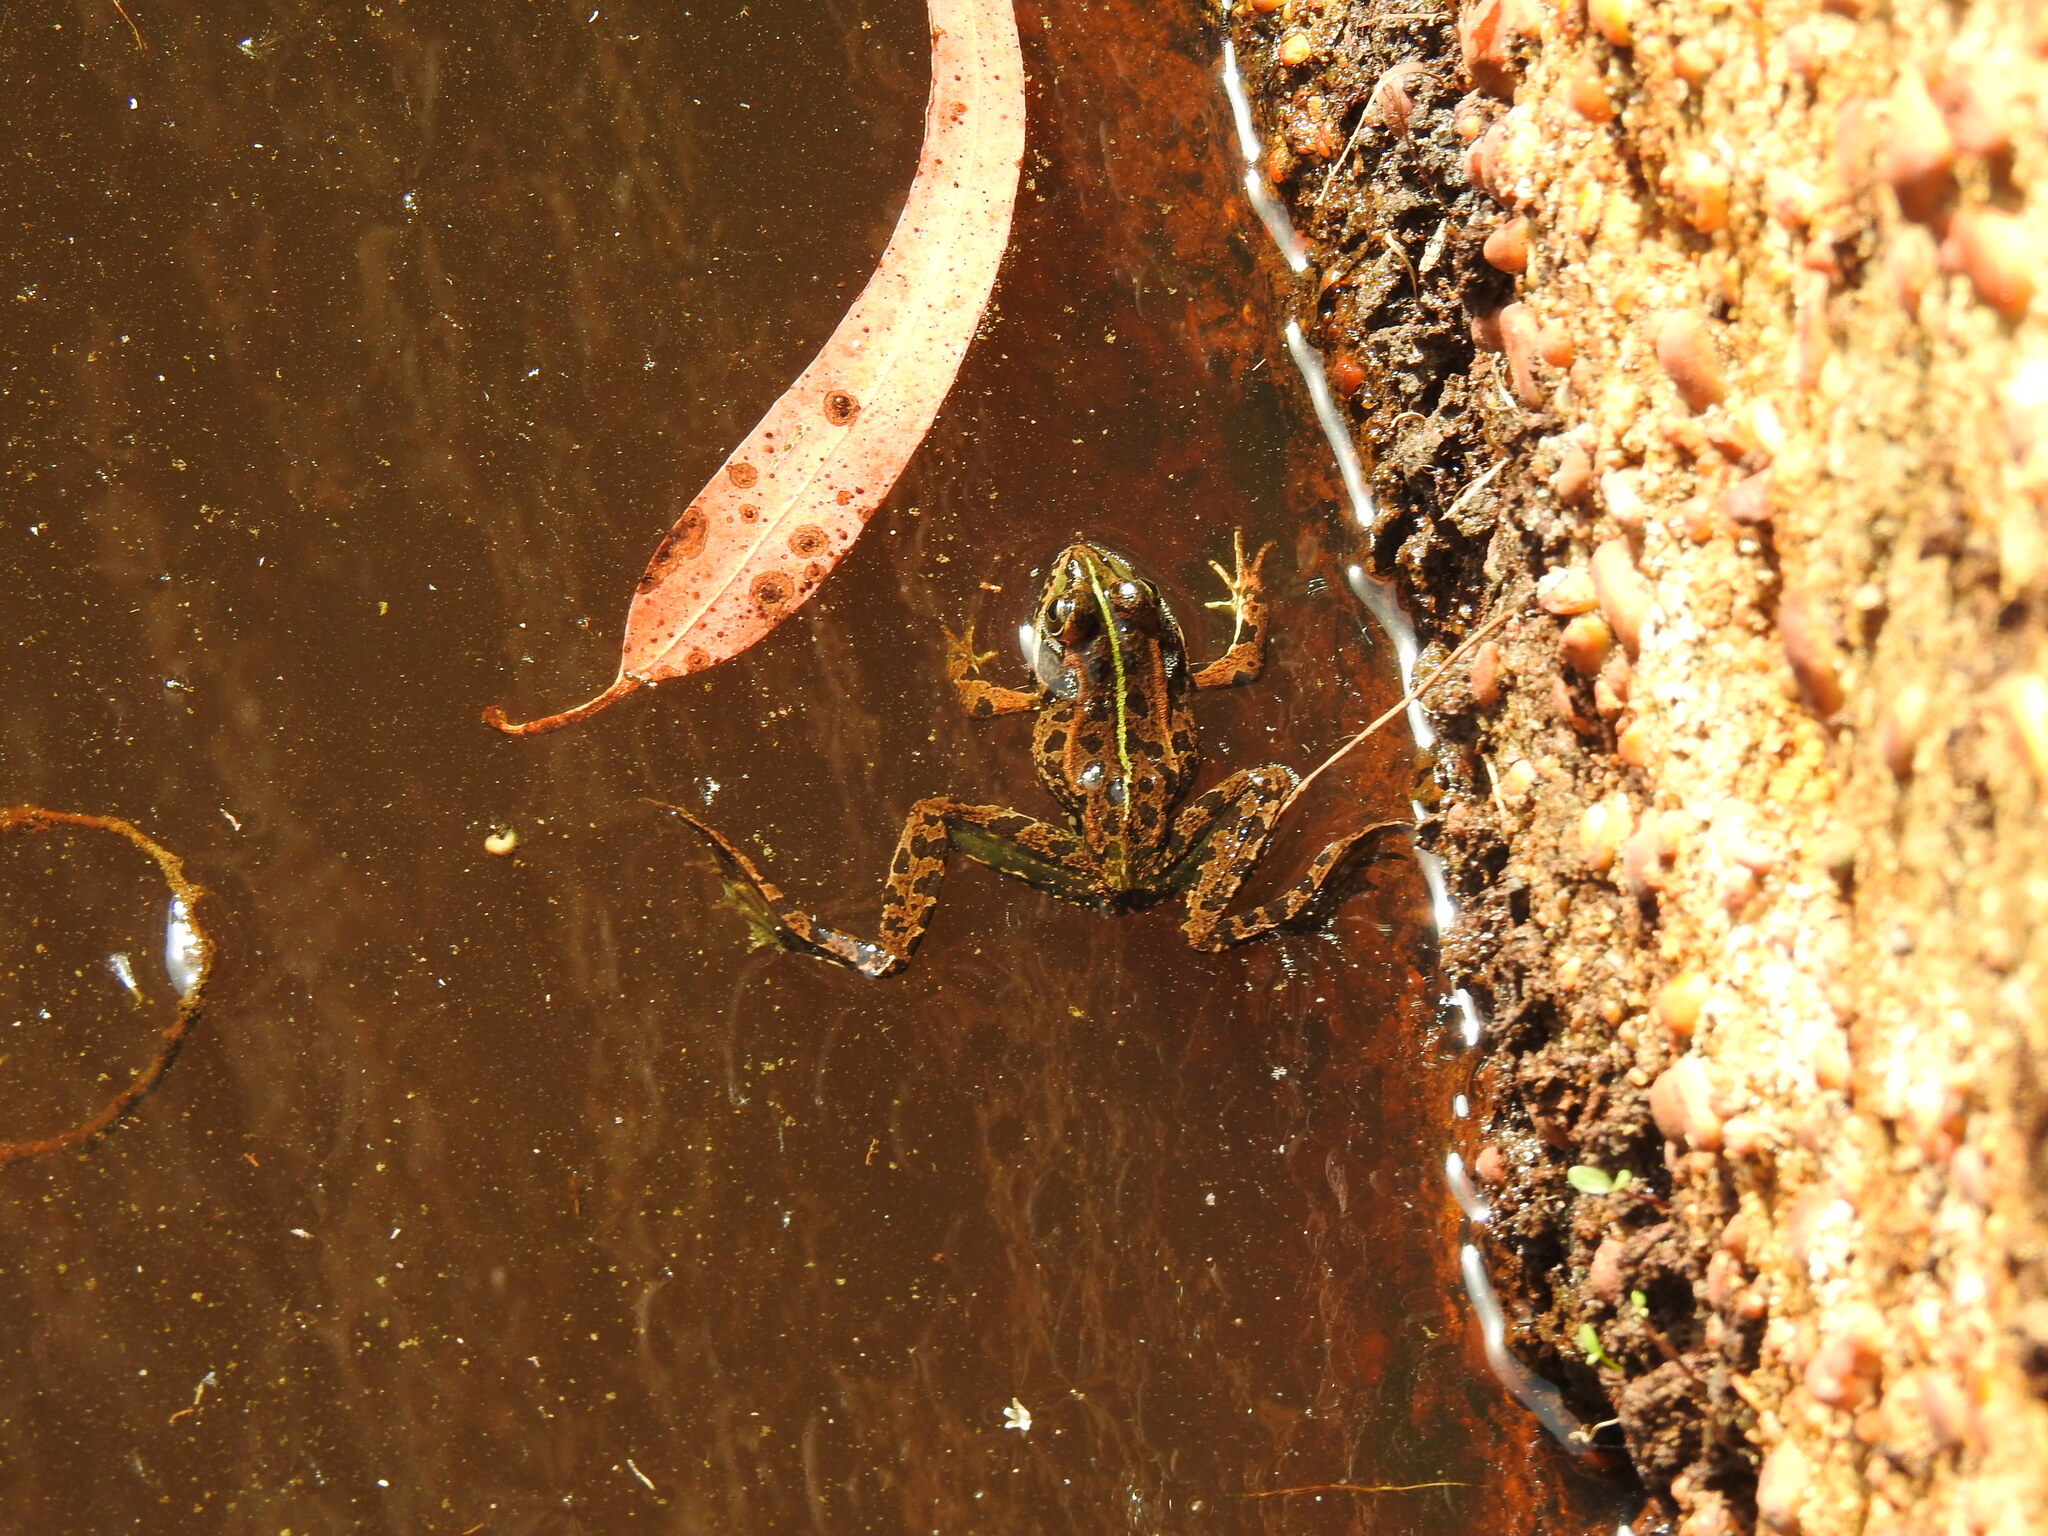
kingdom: Animalia
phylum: Chordata
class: Amphibia
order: Anura
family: Ranidae
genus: Pelophylax
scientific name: Pelophylax perezi
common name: Perez's frog
